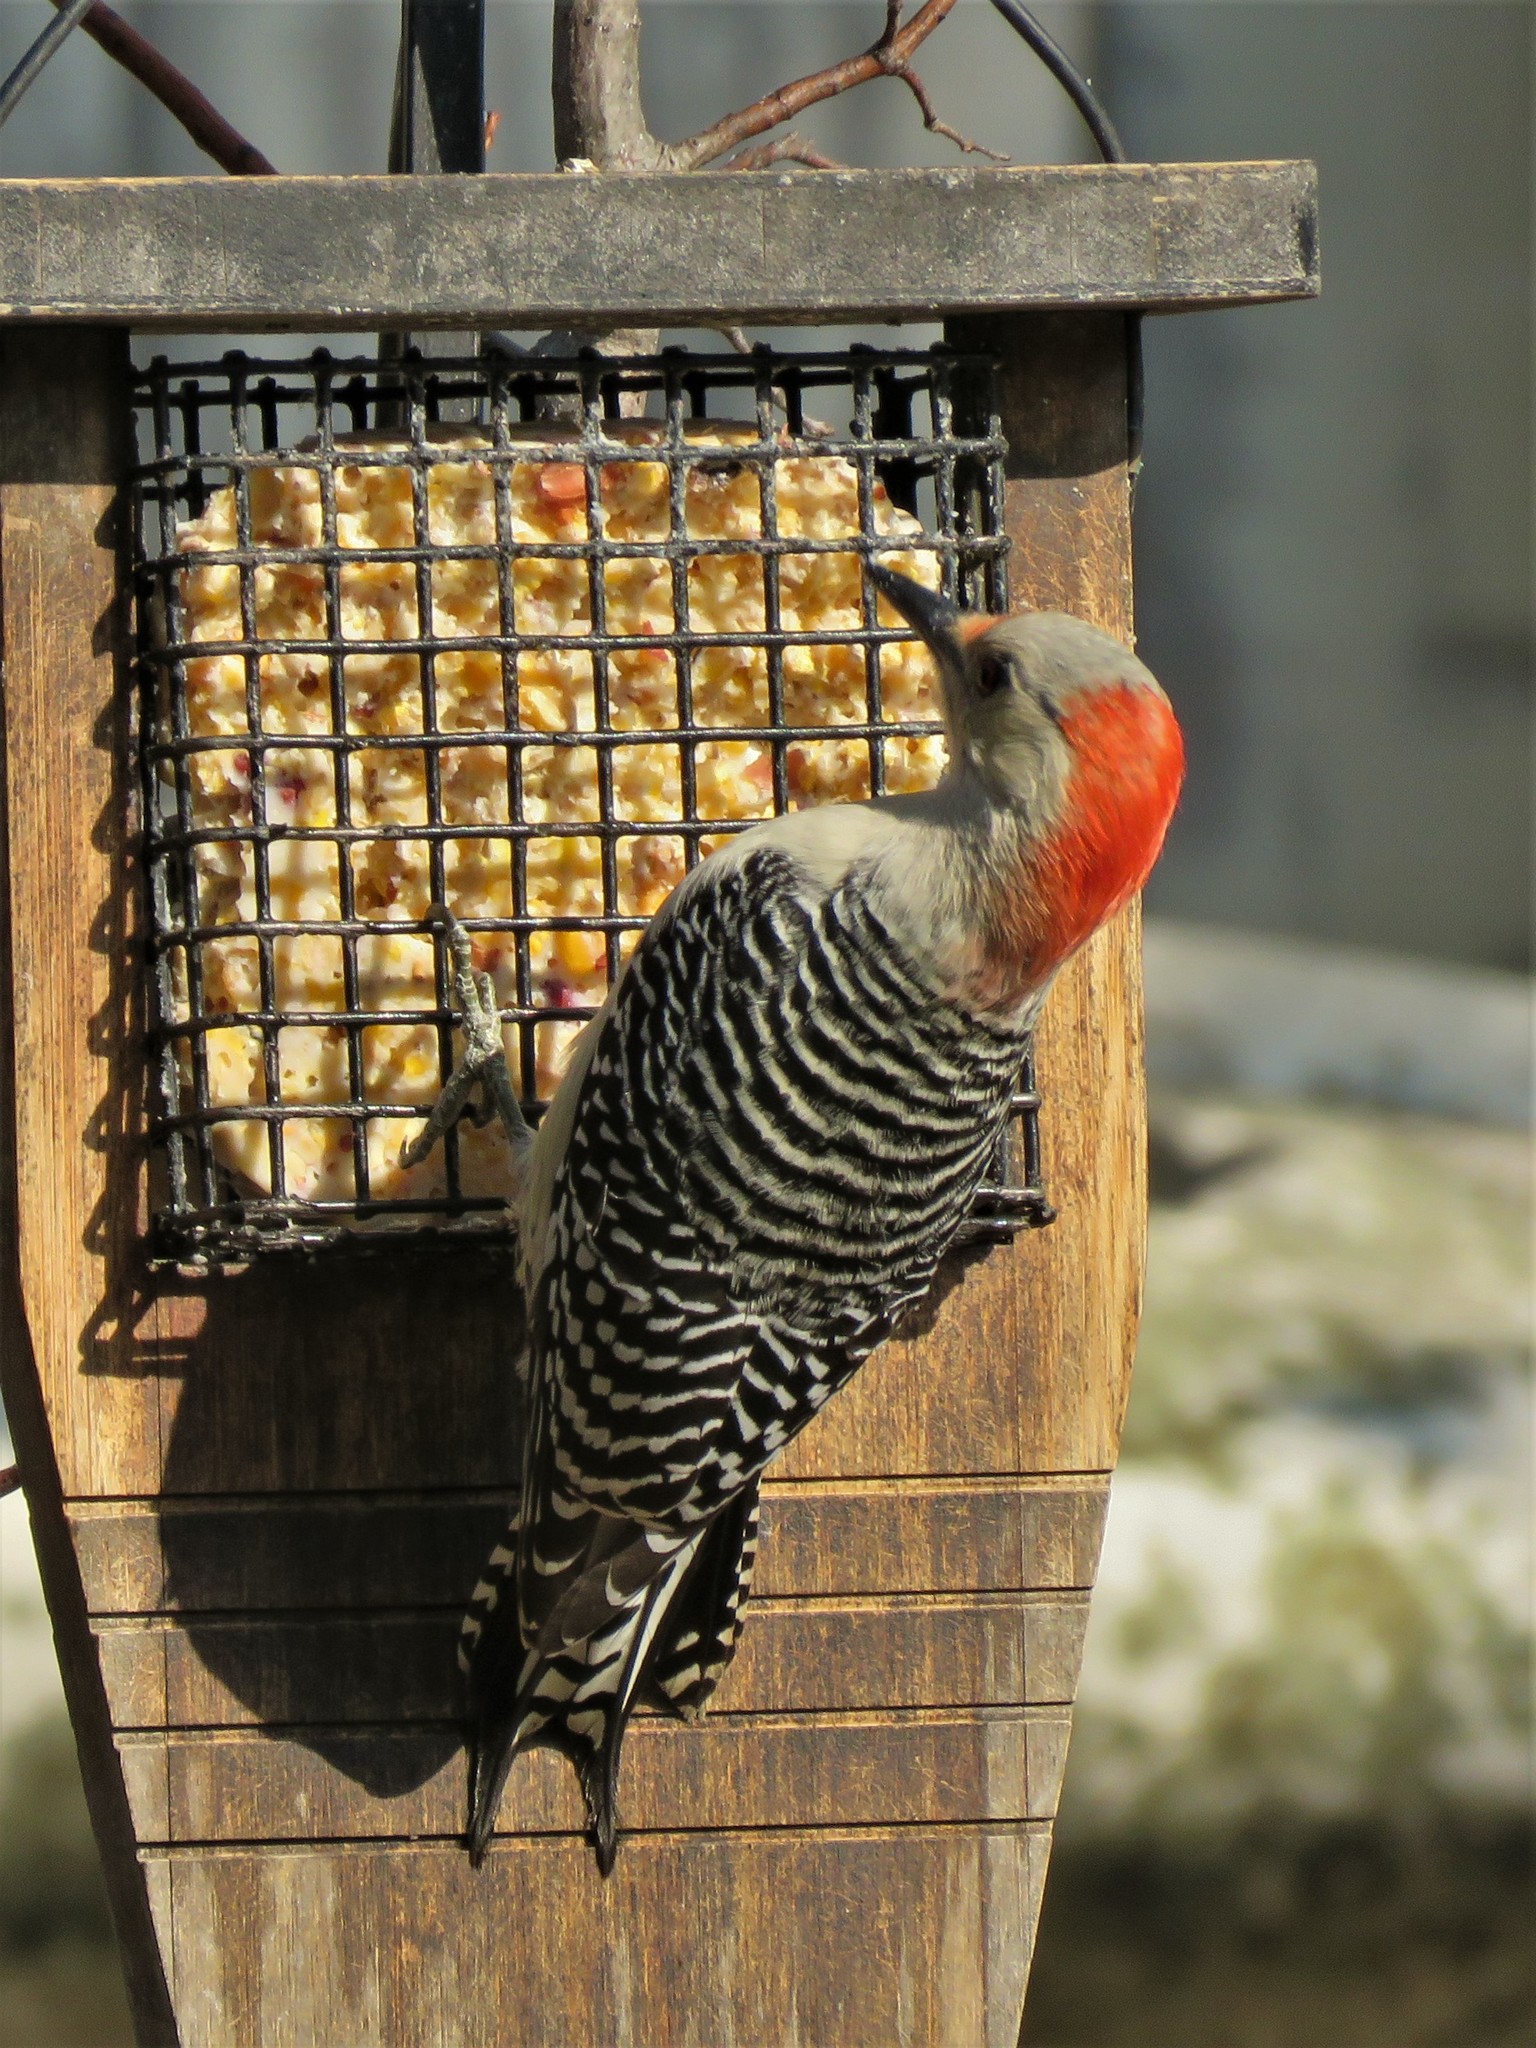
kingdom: Animalia
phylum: Chordata
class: Aves
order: Piciformes
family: Picidae
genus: Melanerpes
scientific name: Melanerpes carolinus
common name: Red-bellied woodpecker
